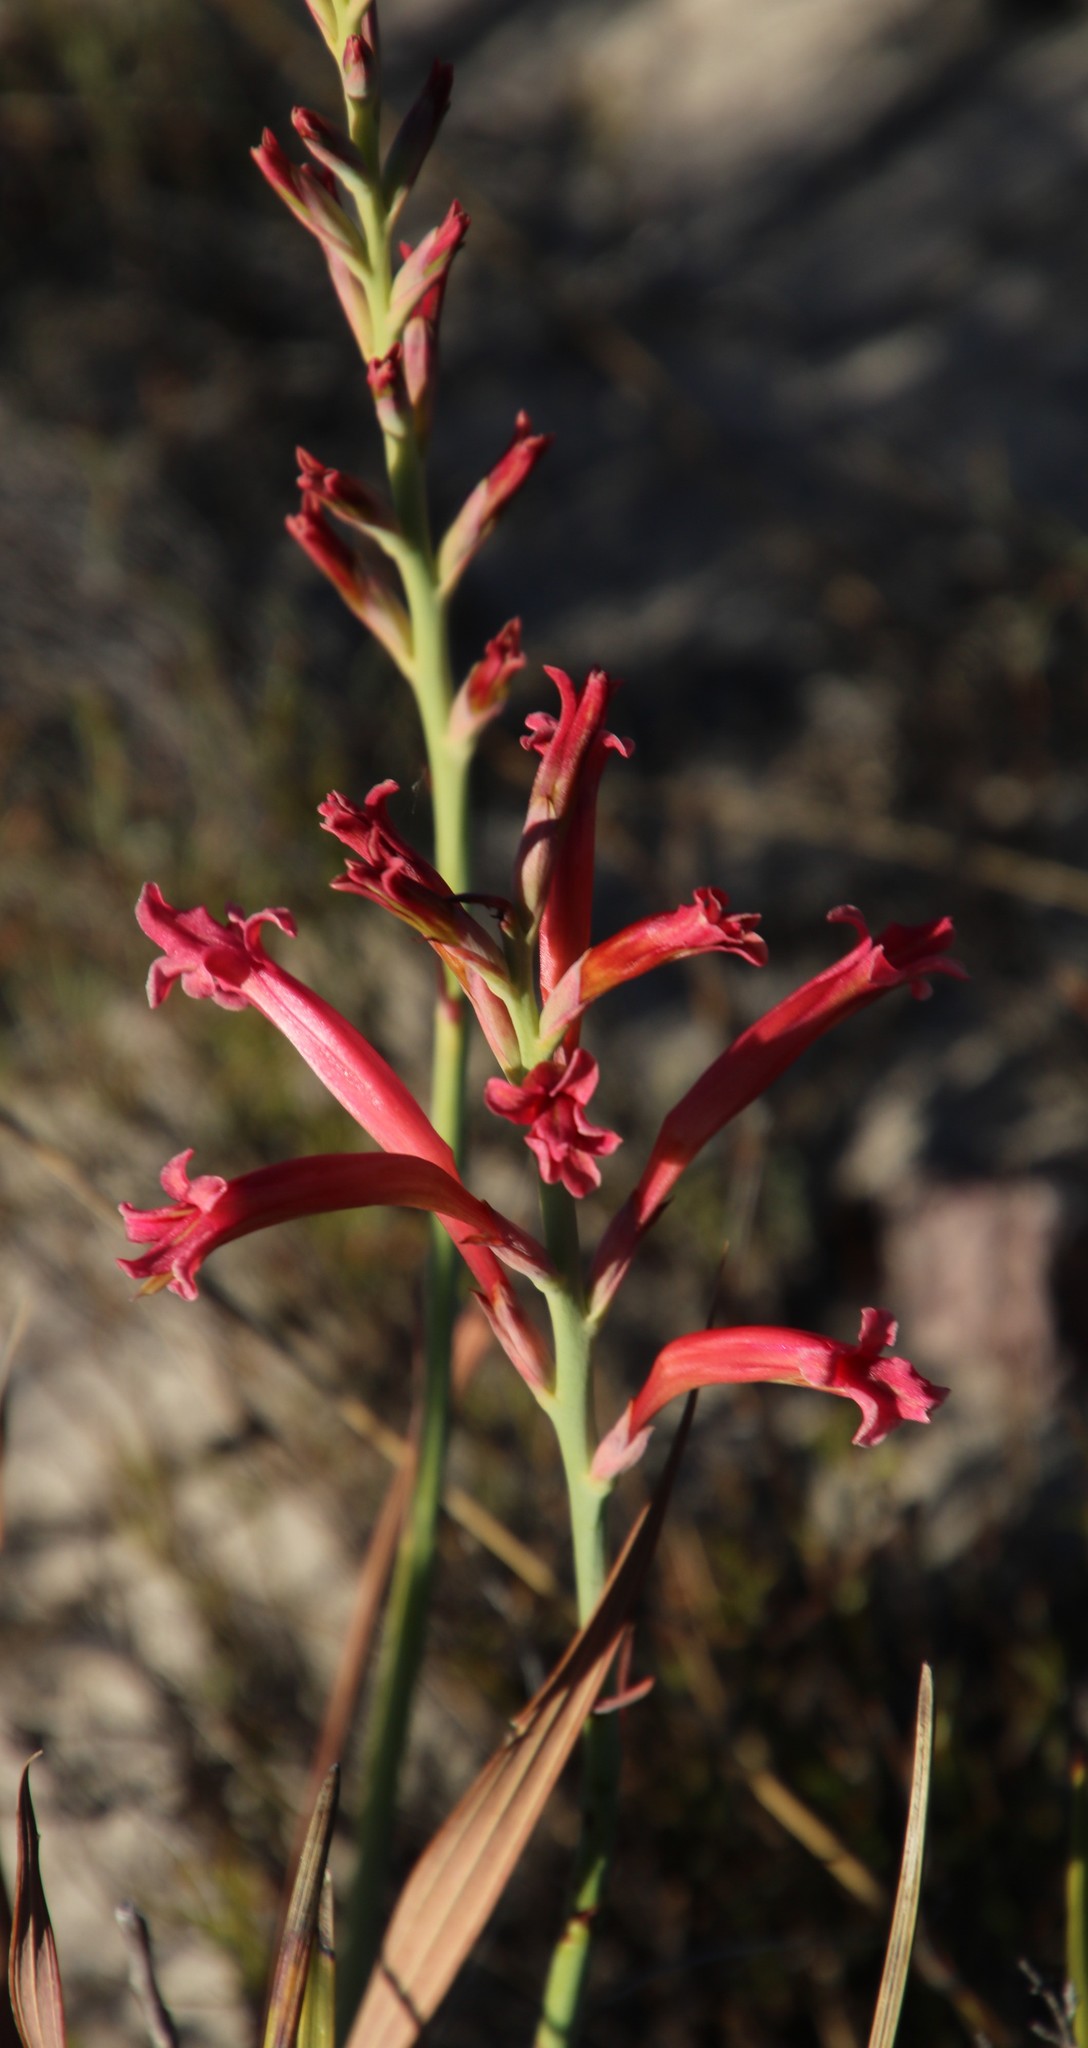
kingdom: Plantae
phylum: Tracheophyta
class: Liliopsida
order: Asparagales
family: Iridaceae
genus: Tritoniopsis
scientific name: Tritoniopsis antholyza
